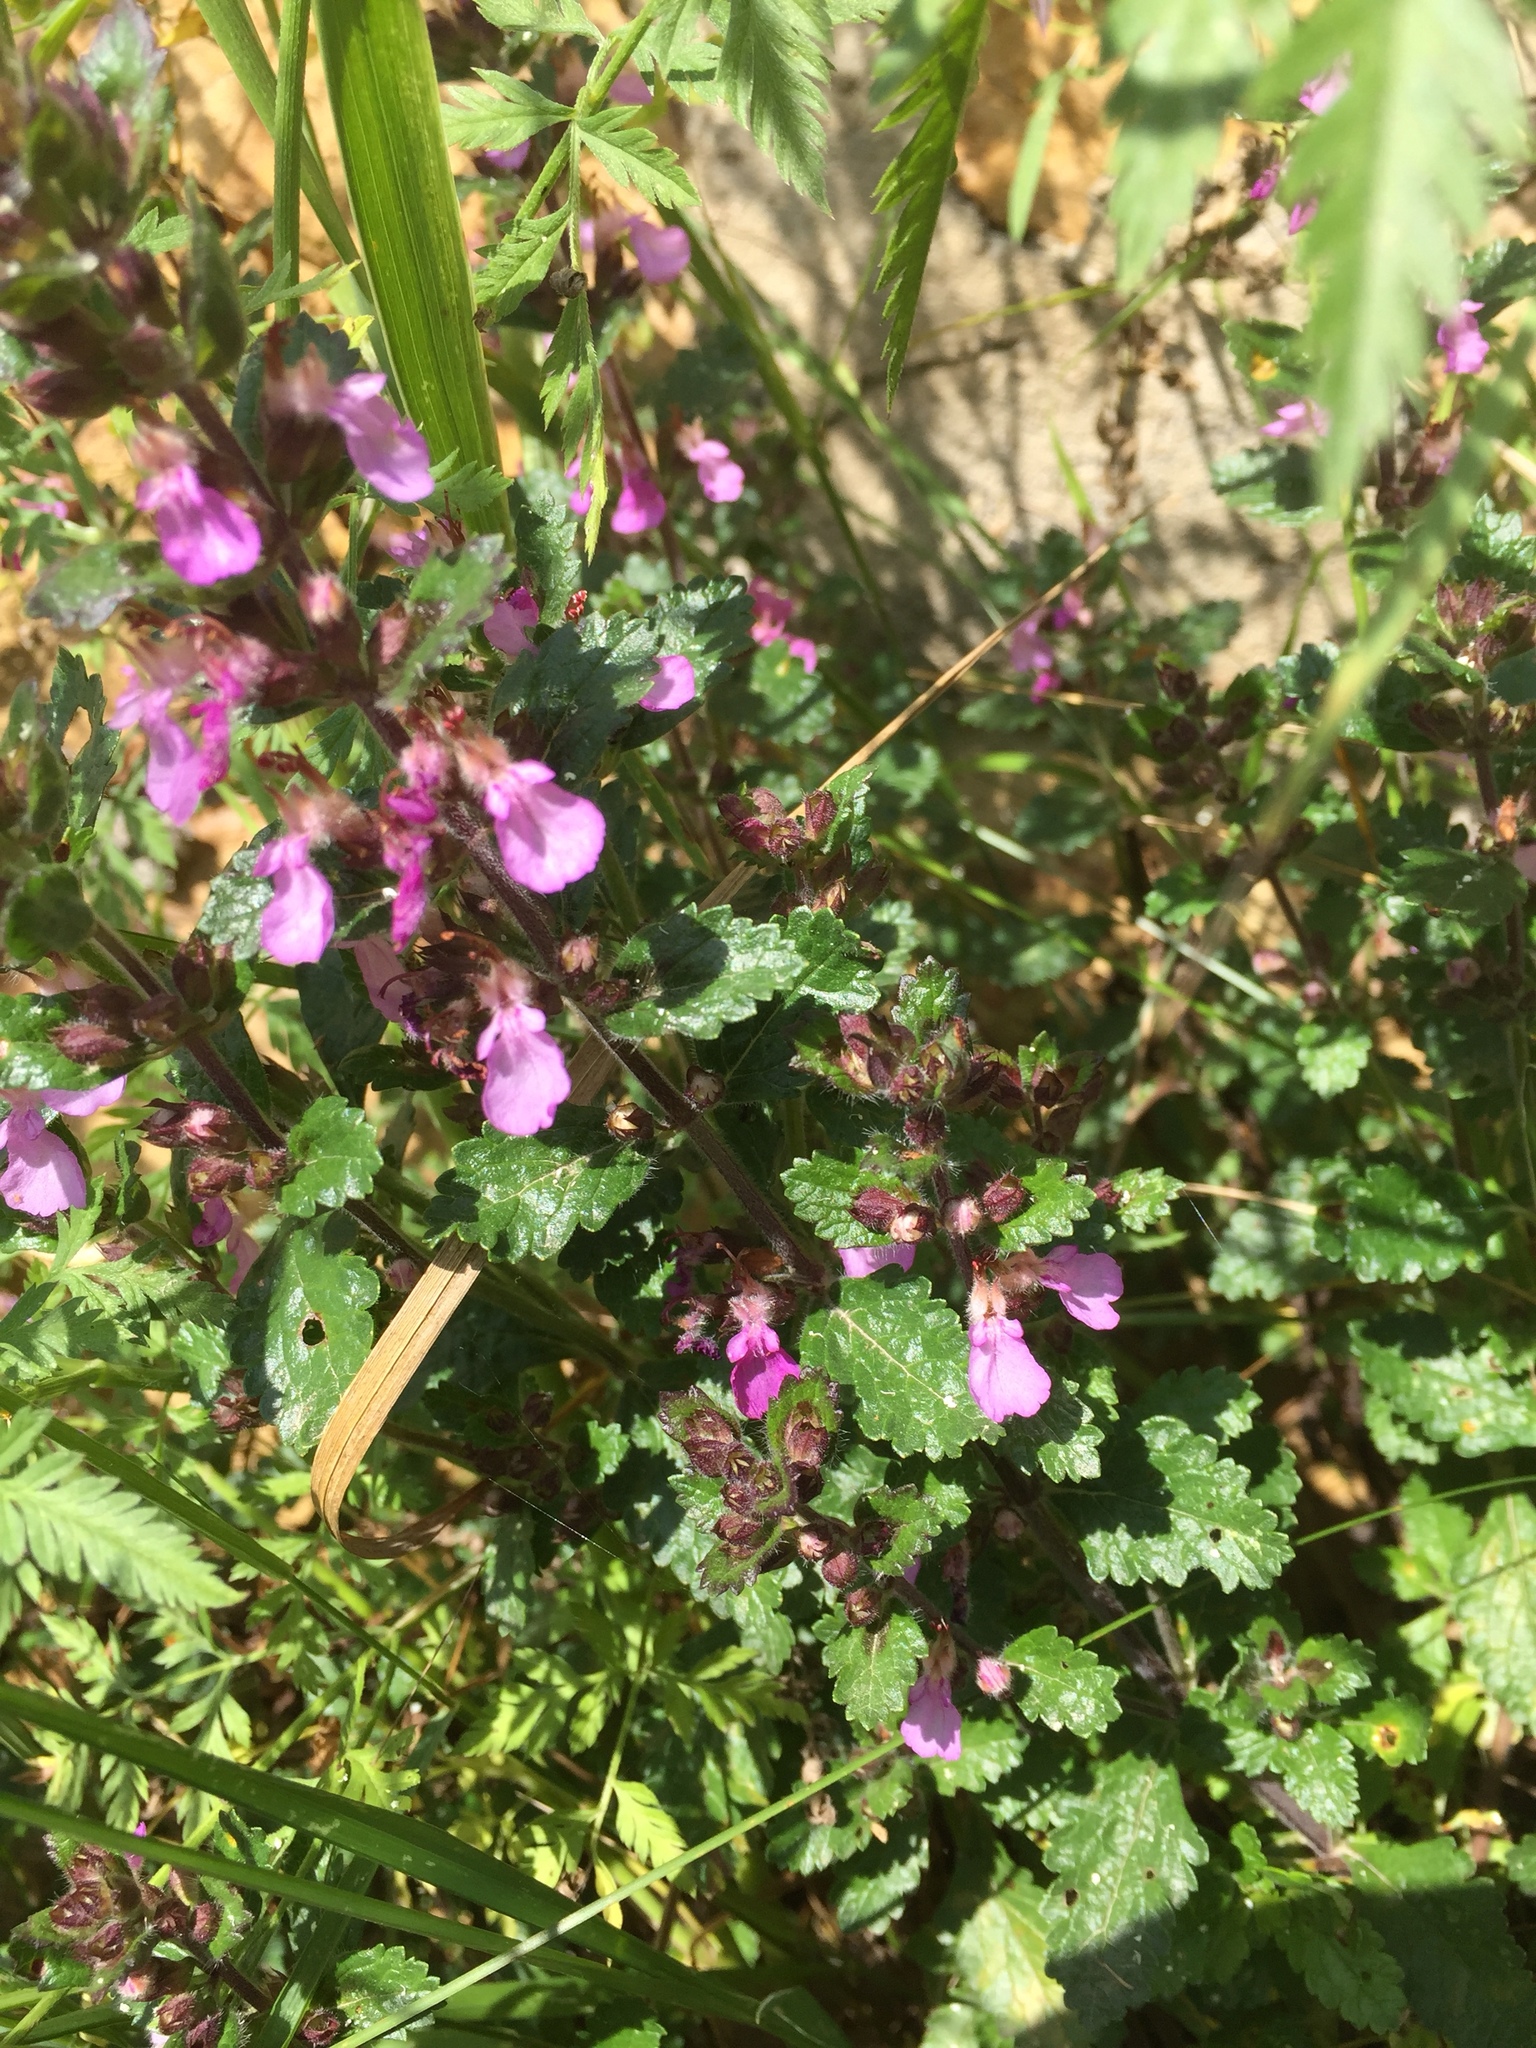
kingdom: Plantae
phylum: Tracheophyta
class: Magnoliopsida
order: Lamiales
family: Lamiaceae
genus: Teucrium
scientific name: Teucrium chamaedrys
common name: Wall germander
